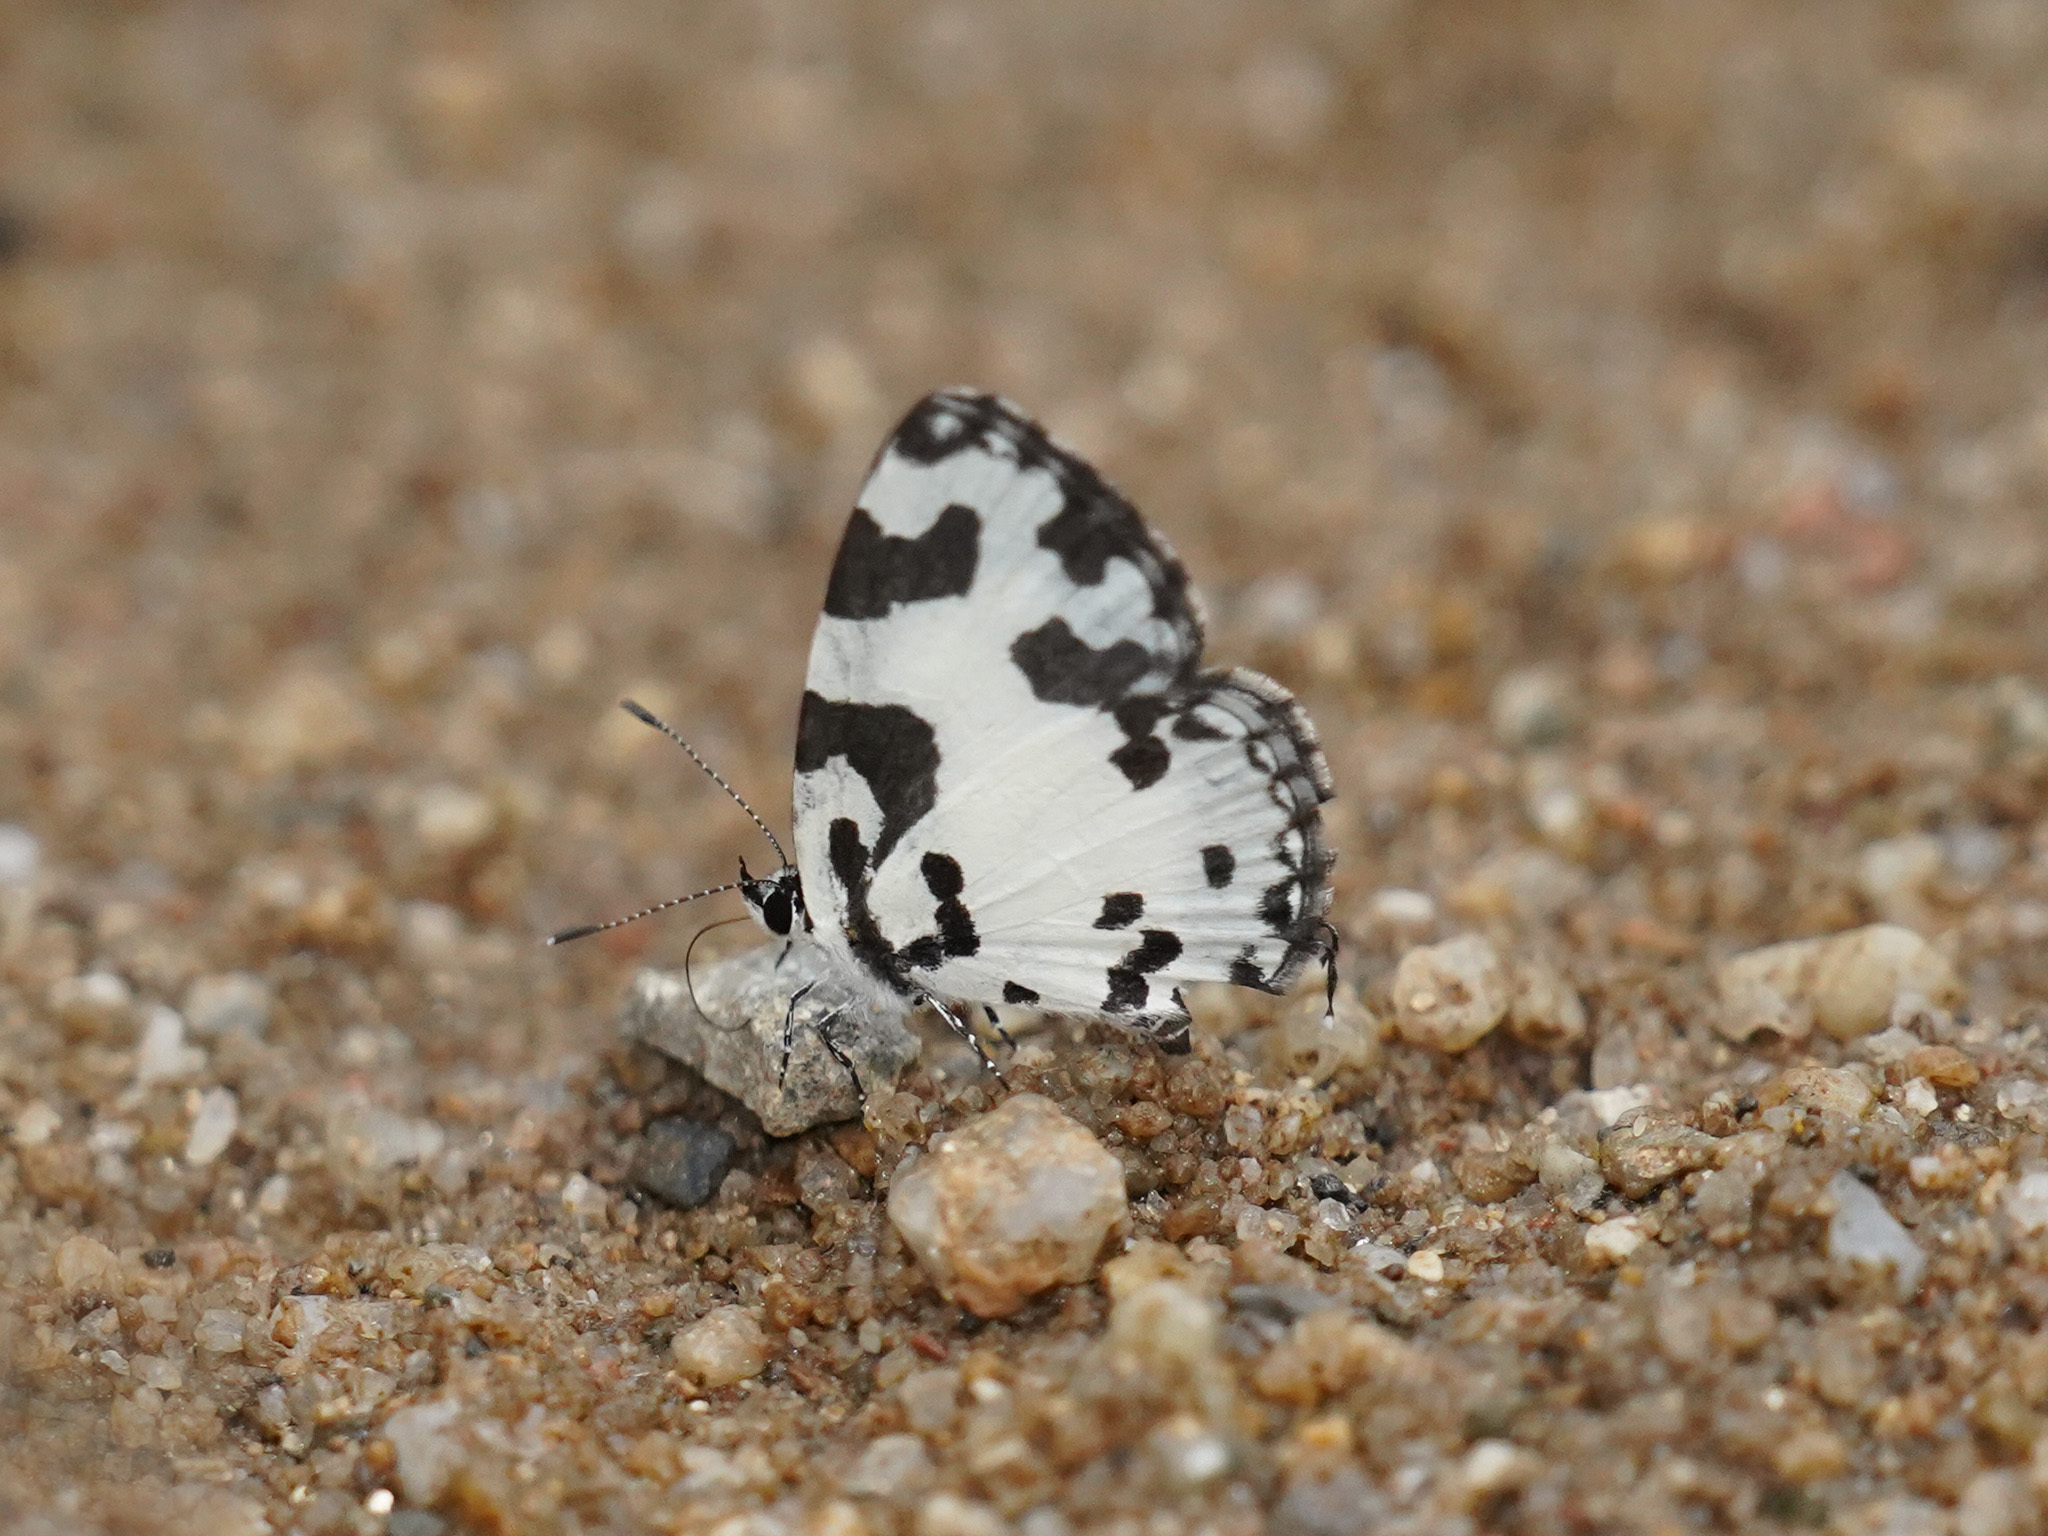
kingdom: Animalia
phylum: Arthropoda
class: Insecta
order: Lepidoptera
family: Lycaenidae
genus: Caleta
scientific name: Caleta decidia
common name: Angled pierrot
